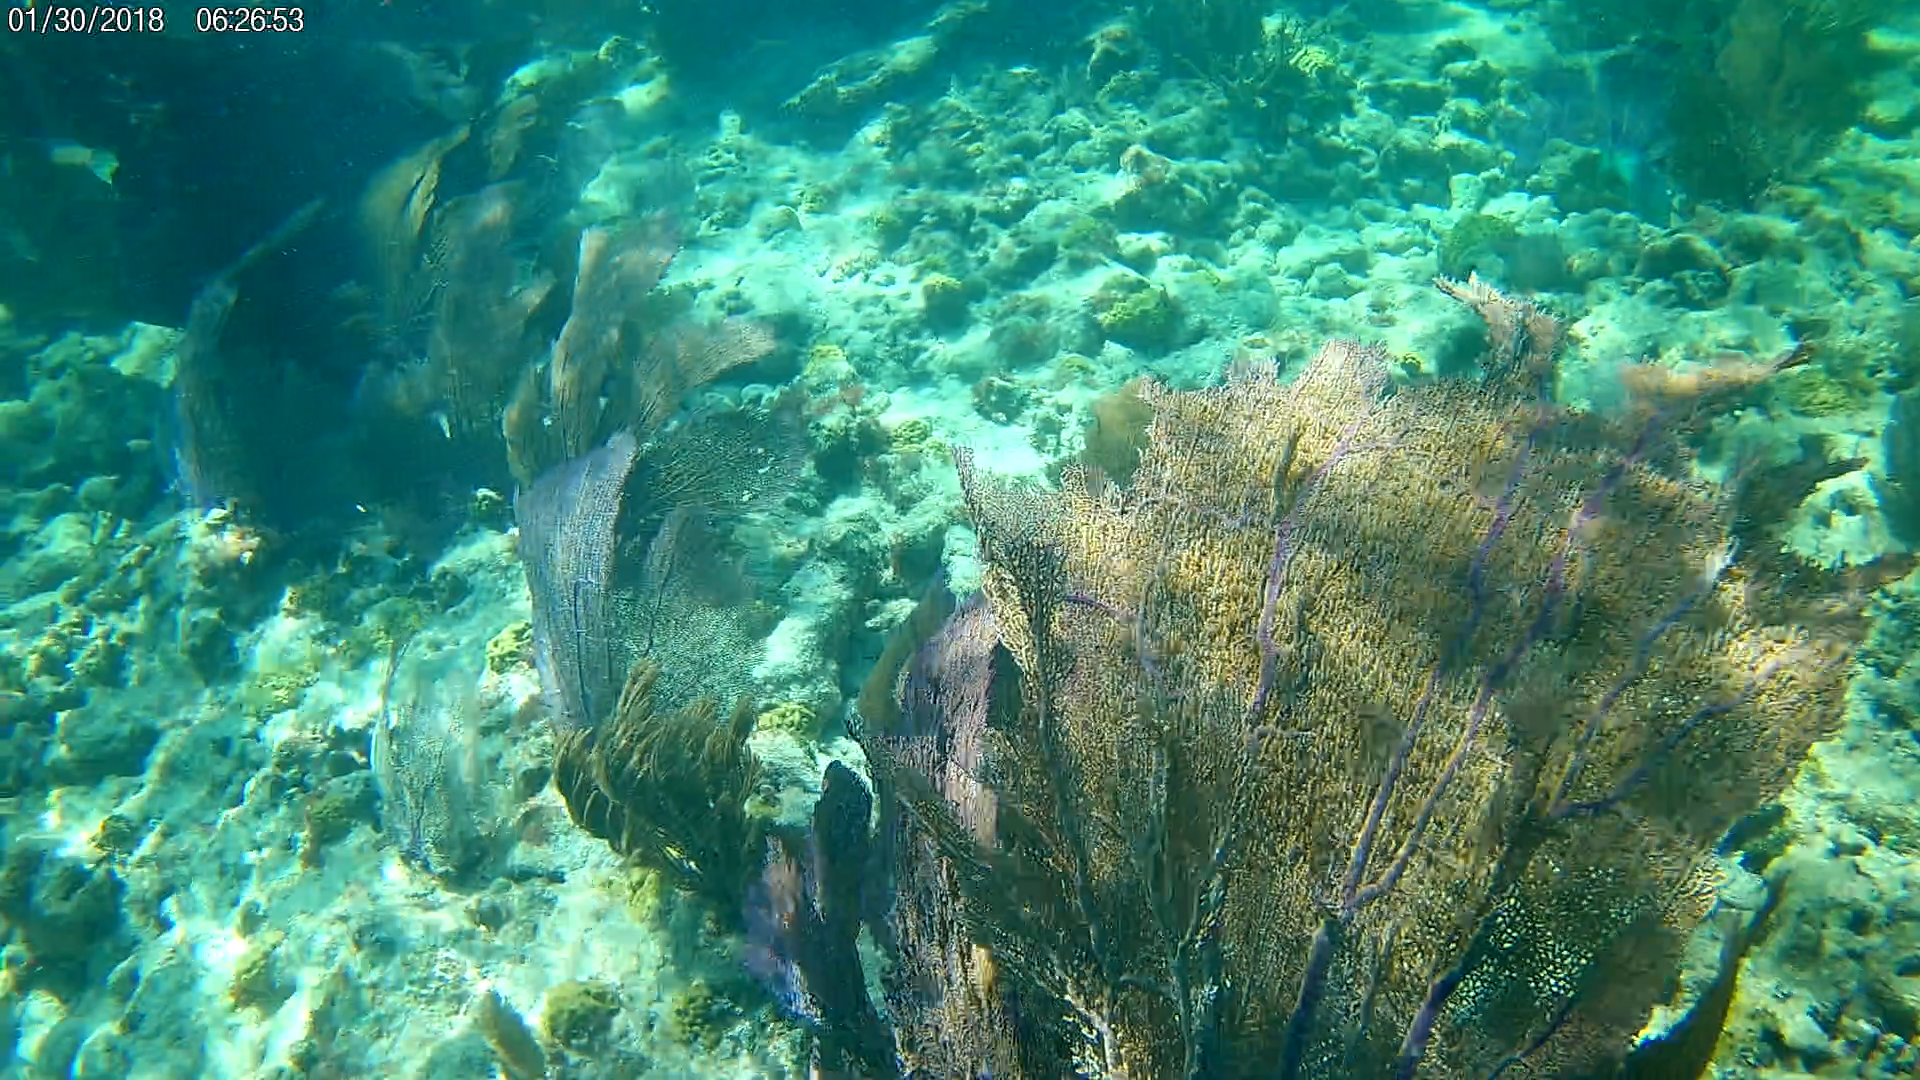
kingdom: Animalia
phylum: Cnidaria
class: Anthozoa
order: Malacalcyonacea
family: Gorgoniidae
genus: Gorgonia
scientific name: Gorgonia ventalina
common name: Common sea fan
